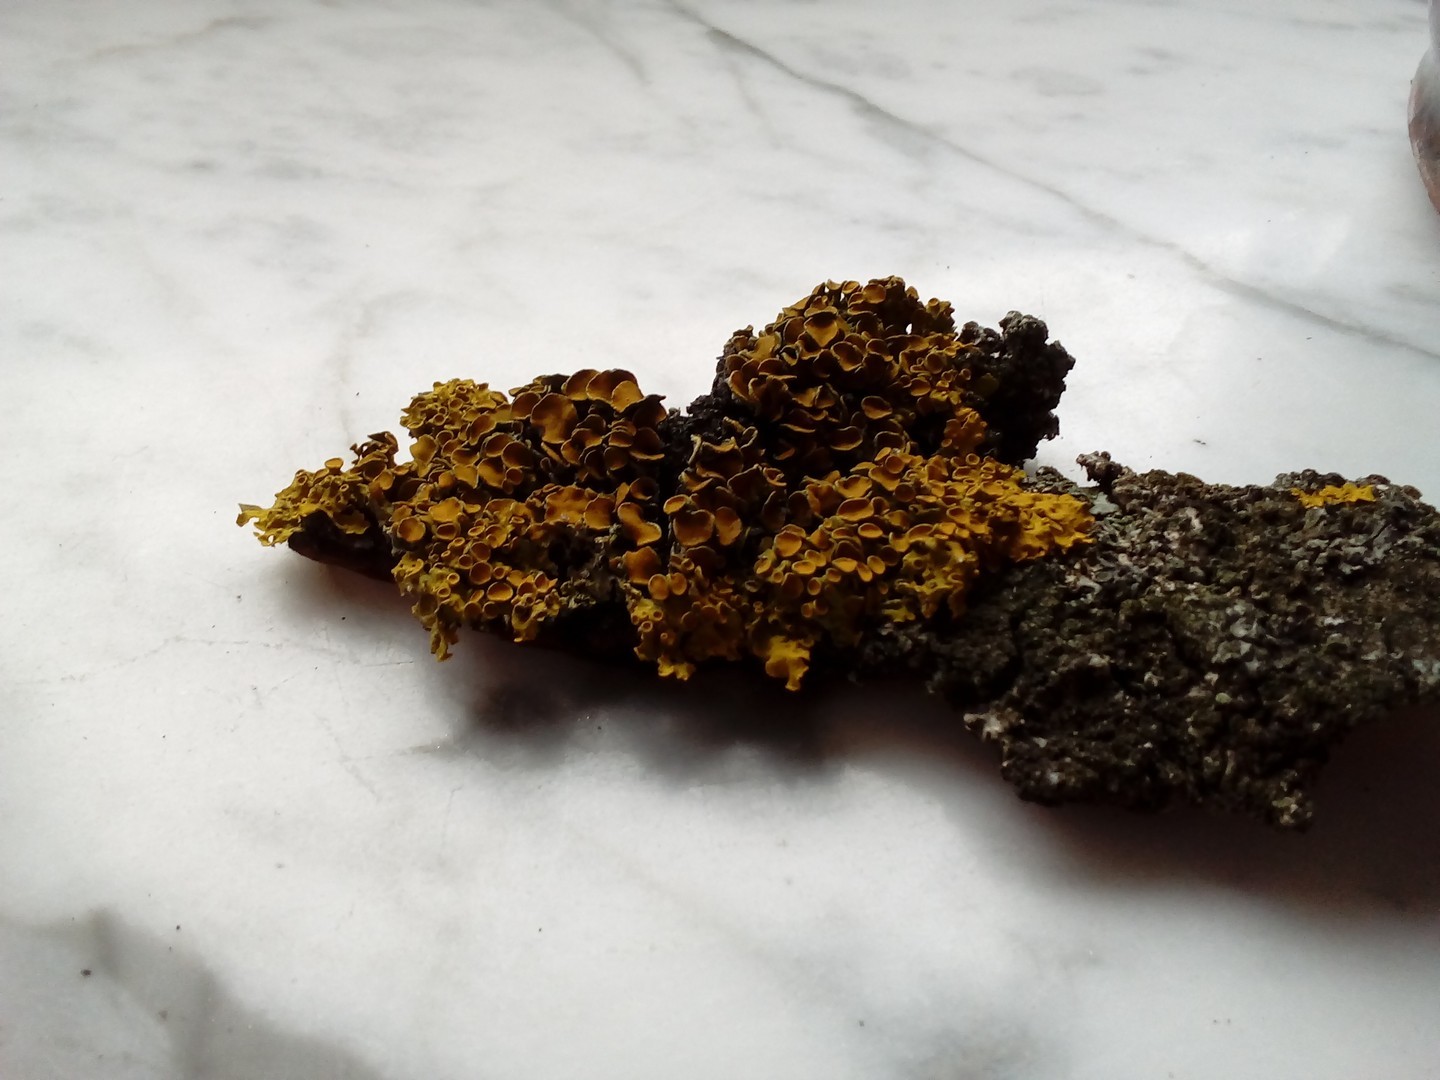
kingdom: Fungi
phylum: Ascomycota
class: Lecanoromycetes
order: Teloschistales
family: Teloschistaceae
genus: Xanthoria
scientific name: Xanthoria parietina
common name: Common orange lichen
